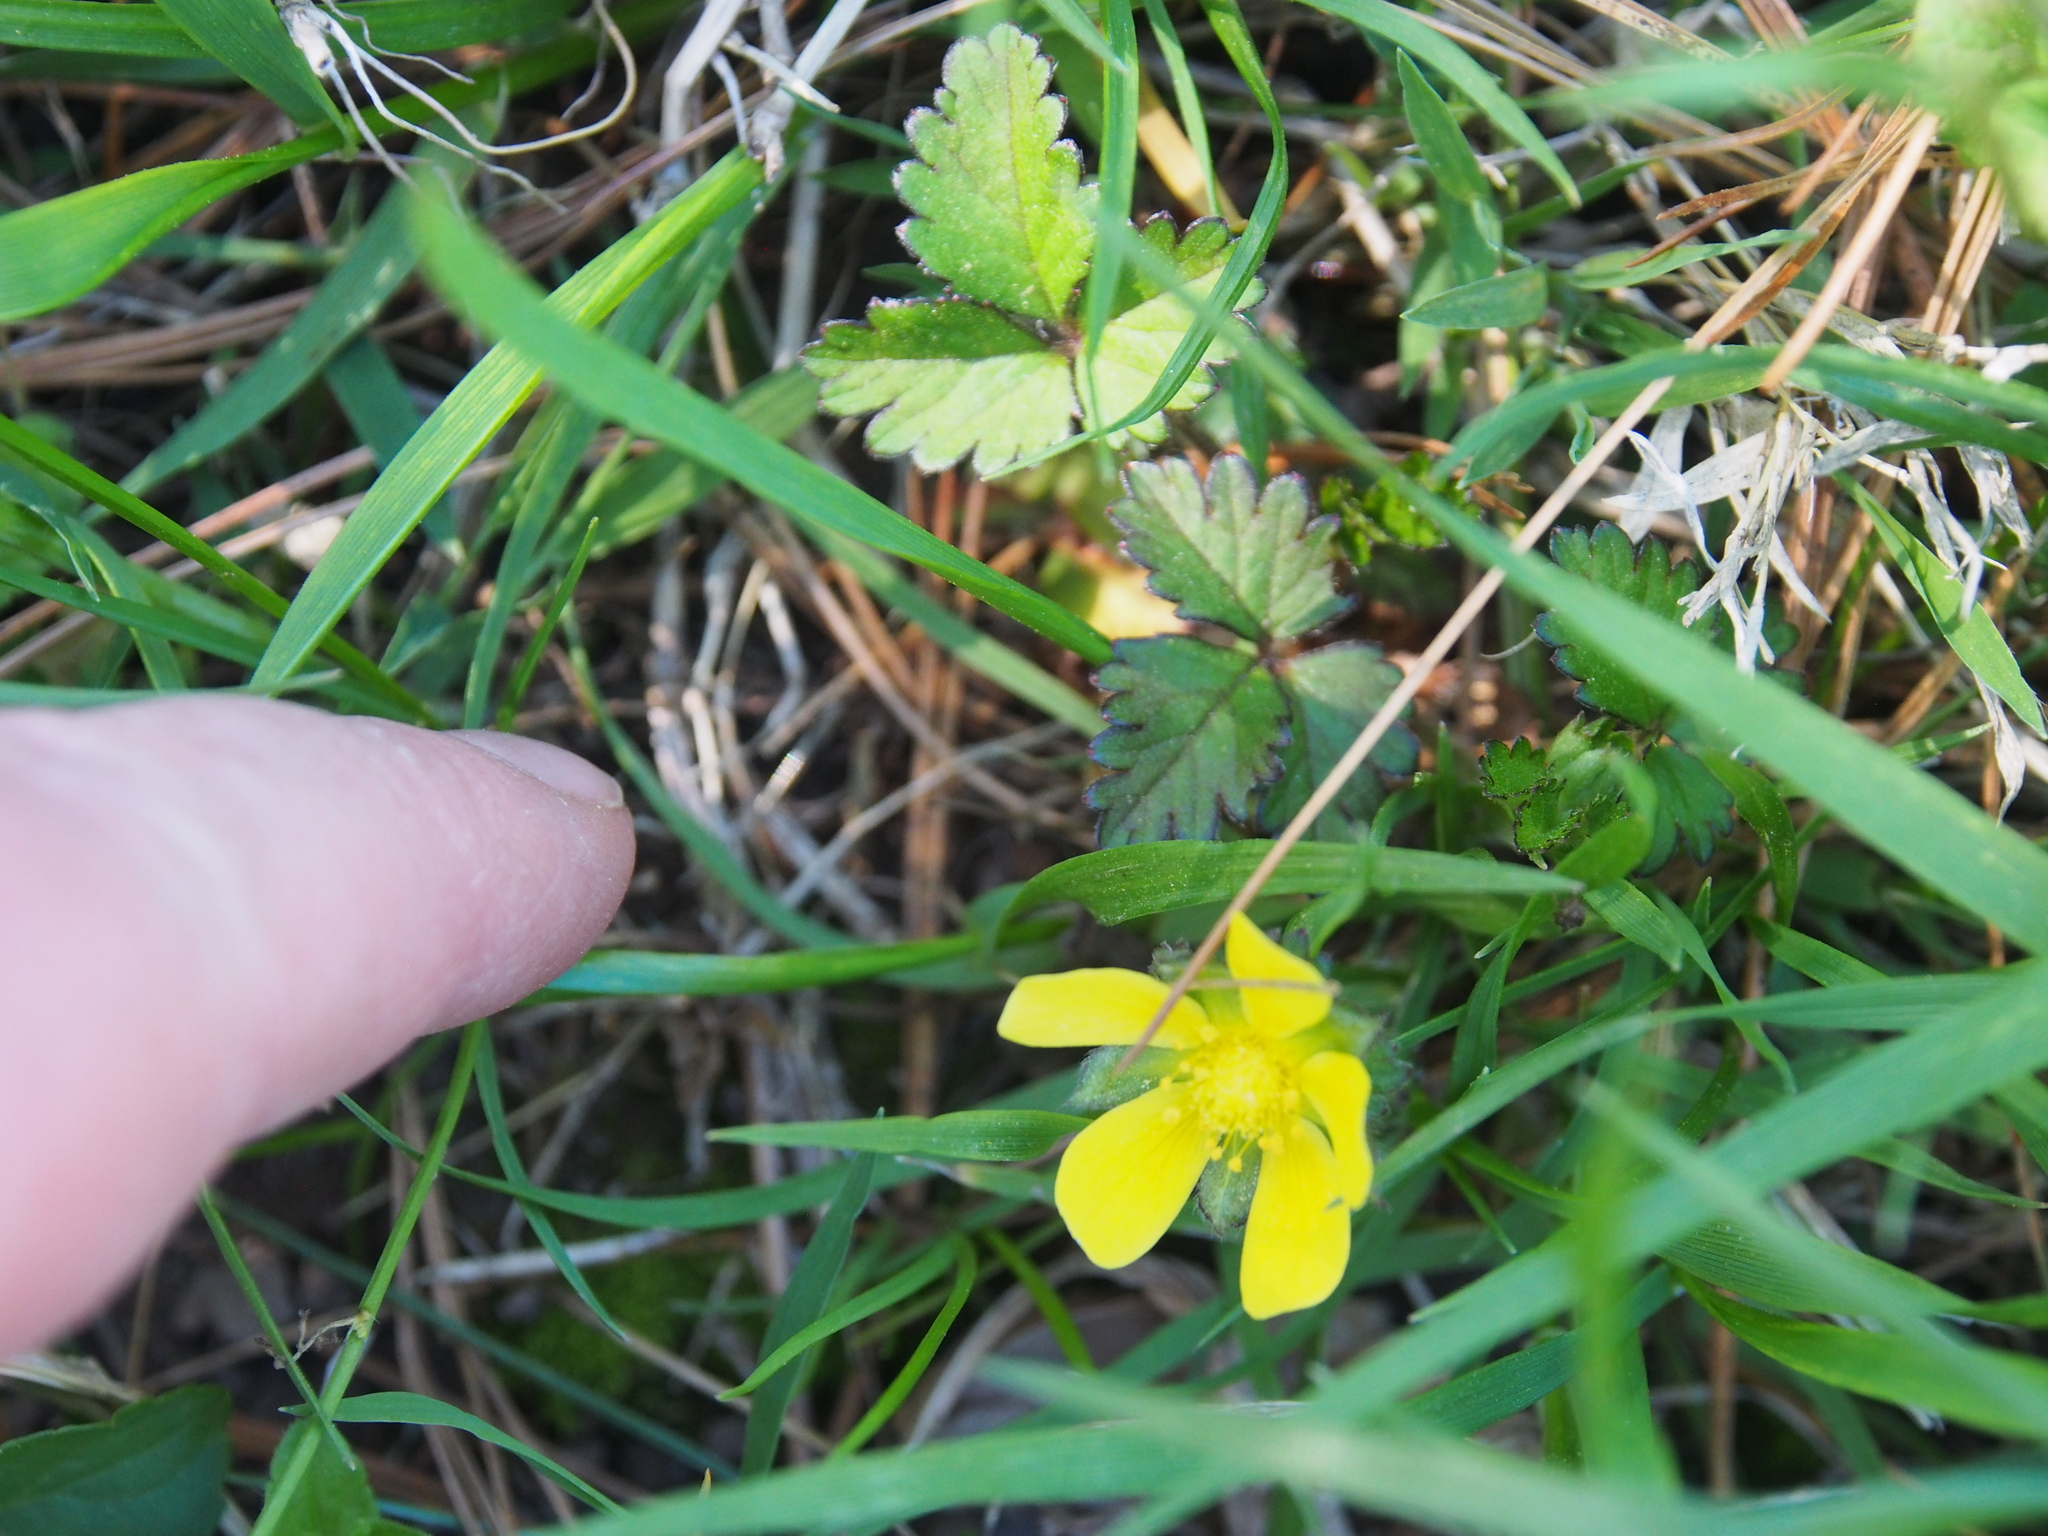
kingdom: Plantae
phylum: Tracheophyta
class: Magnoliopsida
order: Rosales
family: Rosaceae
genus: Potentilla
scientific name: Potentilla indica
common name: Yellow-flowered strawberry
